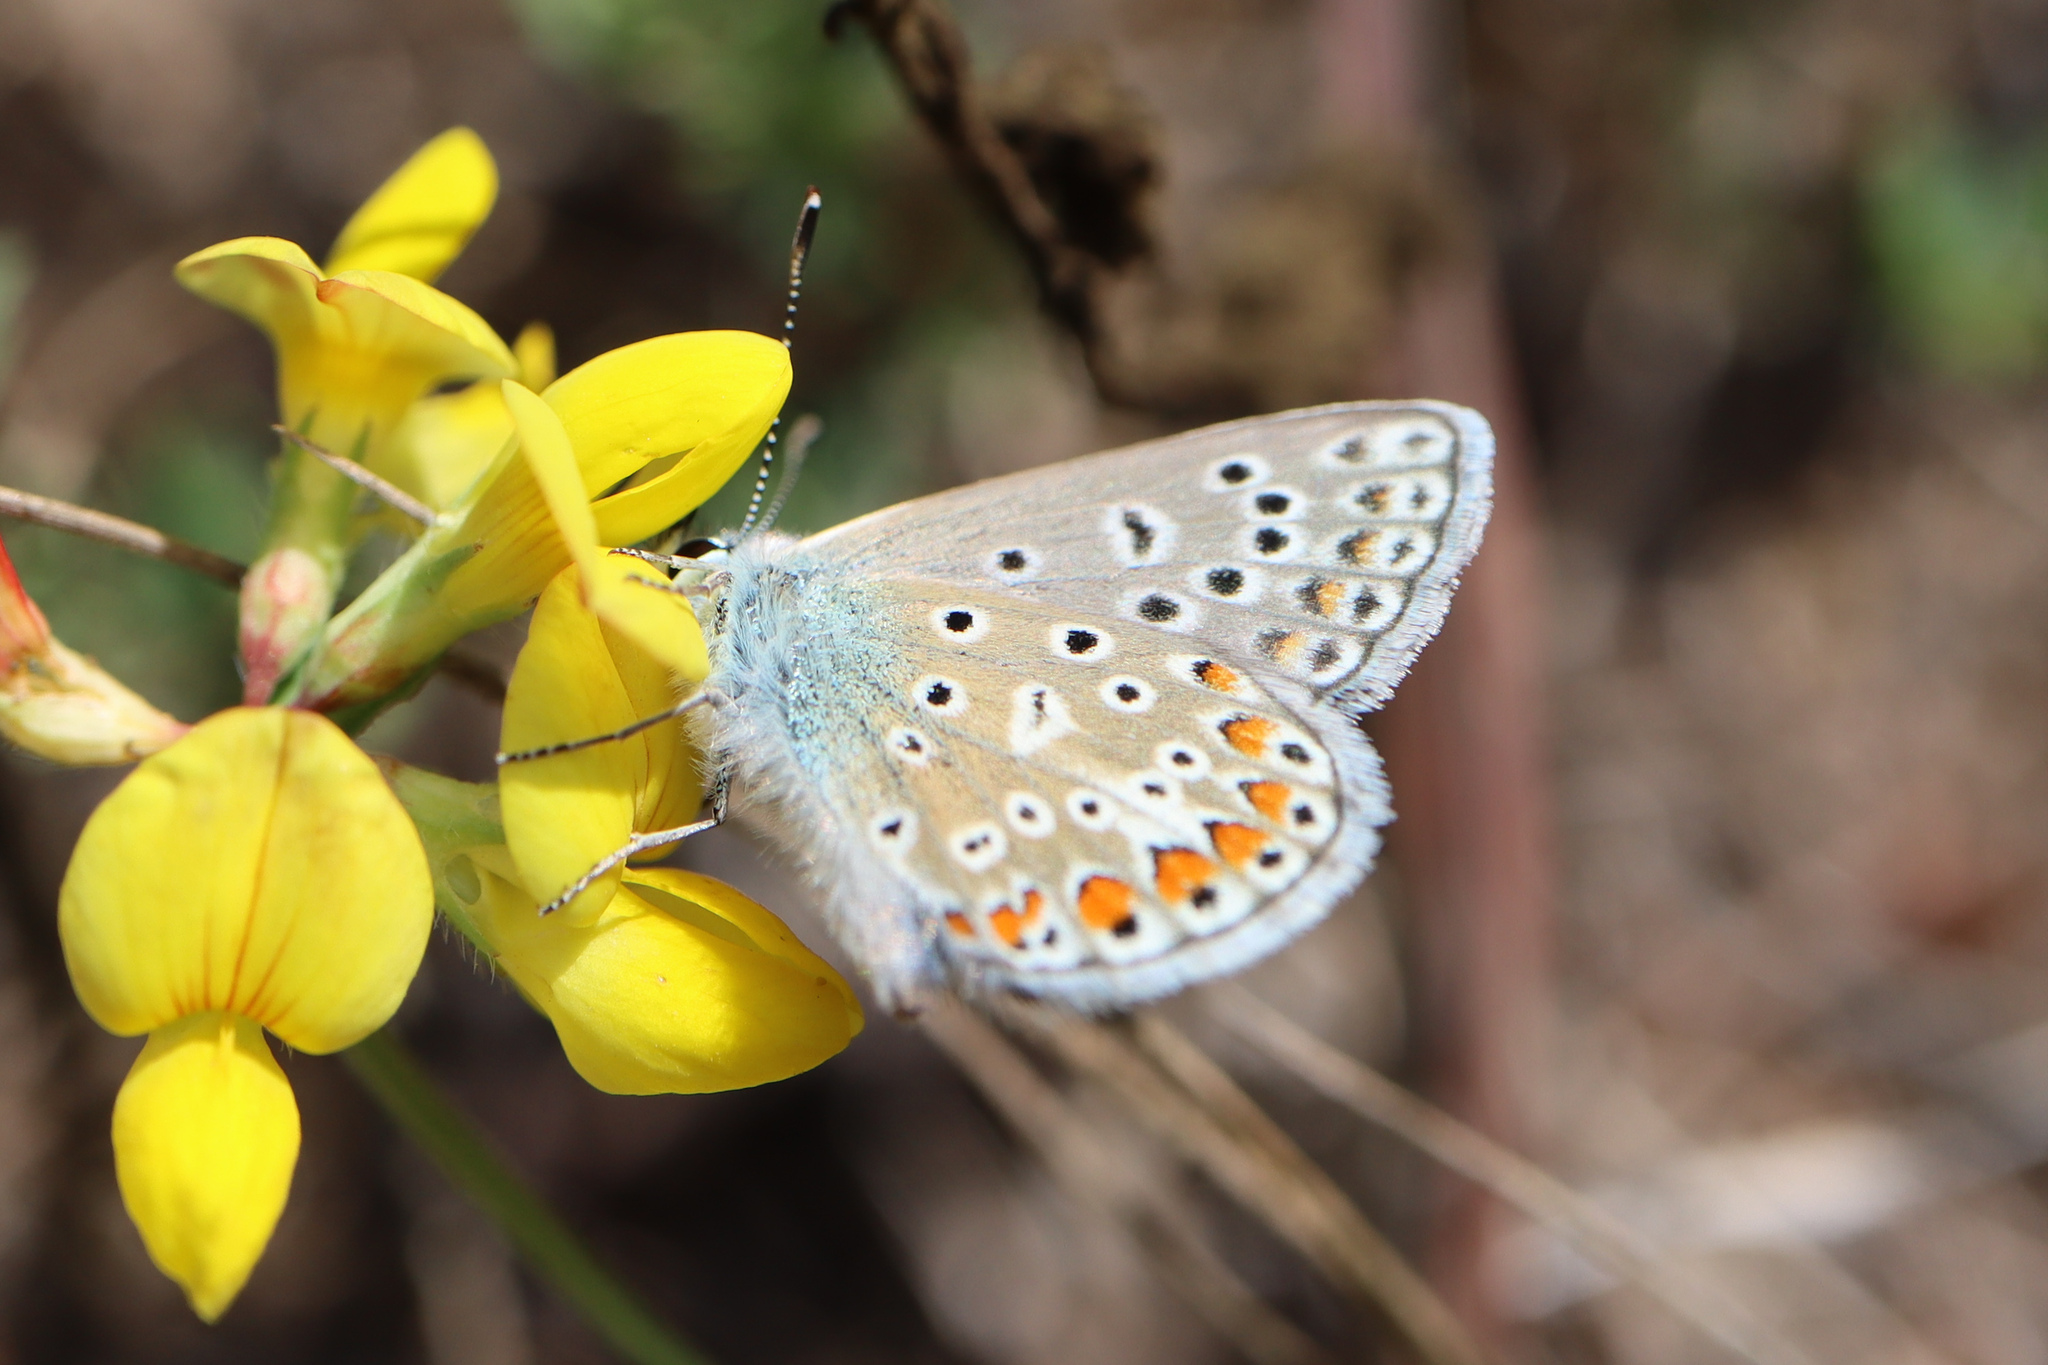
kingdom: Animalia
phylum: Arthropoda
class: Insecta
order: Lepidoptera
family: Lycaenidae
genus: Polyommatus
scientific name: Polyommatus icarus
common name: Common blue
